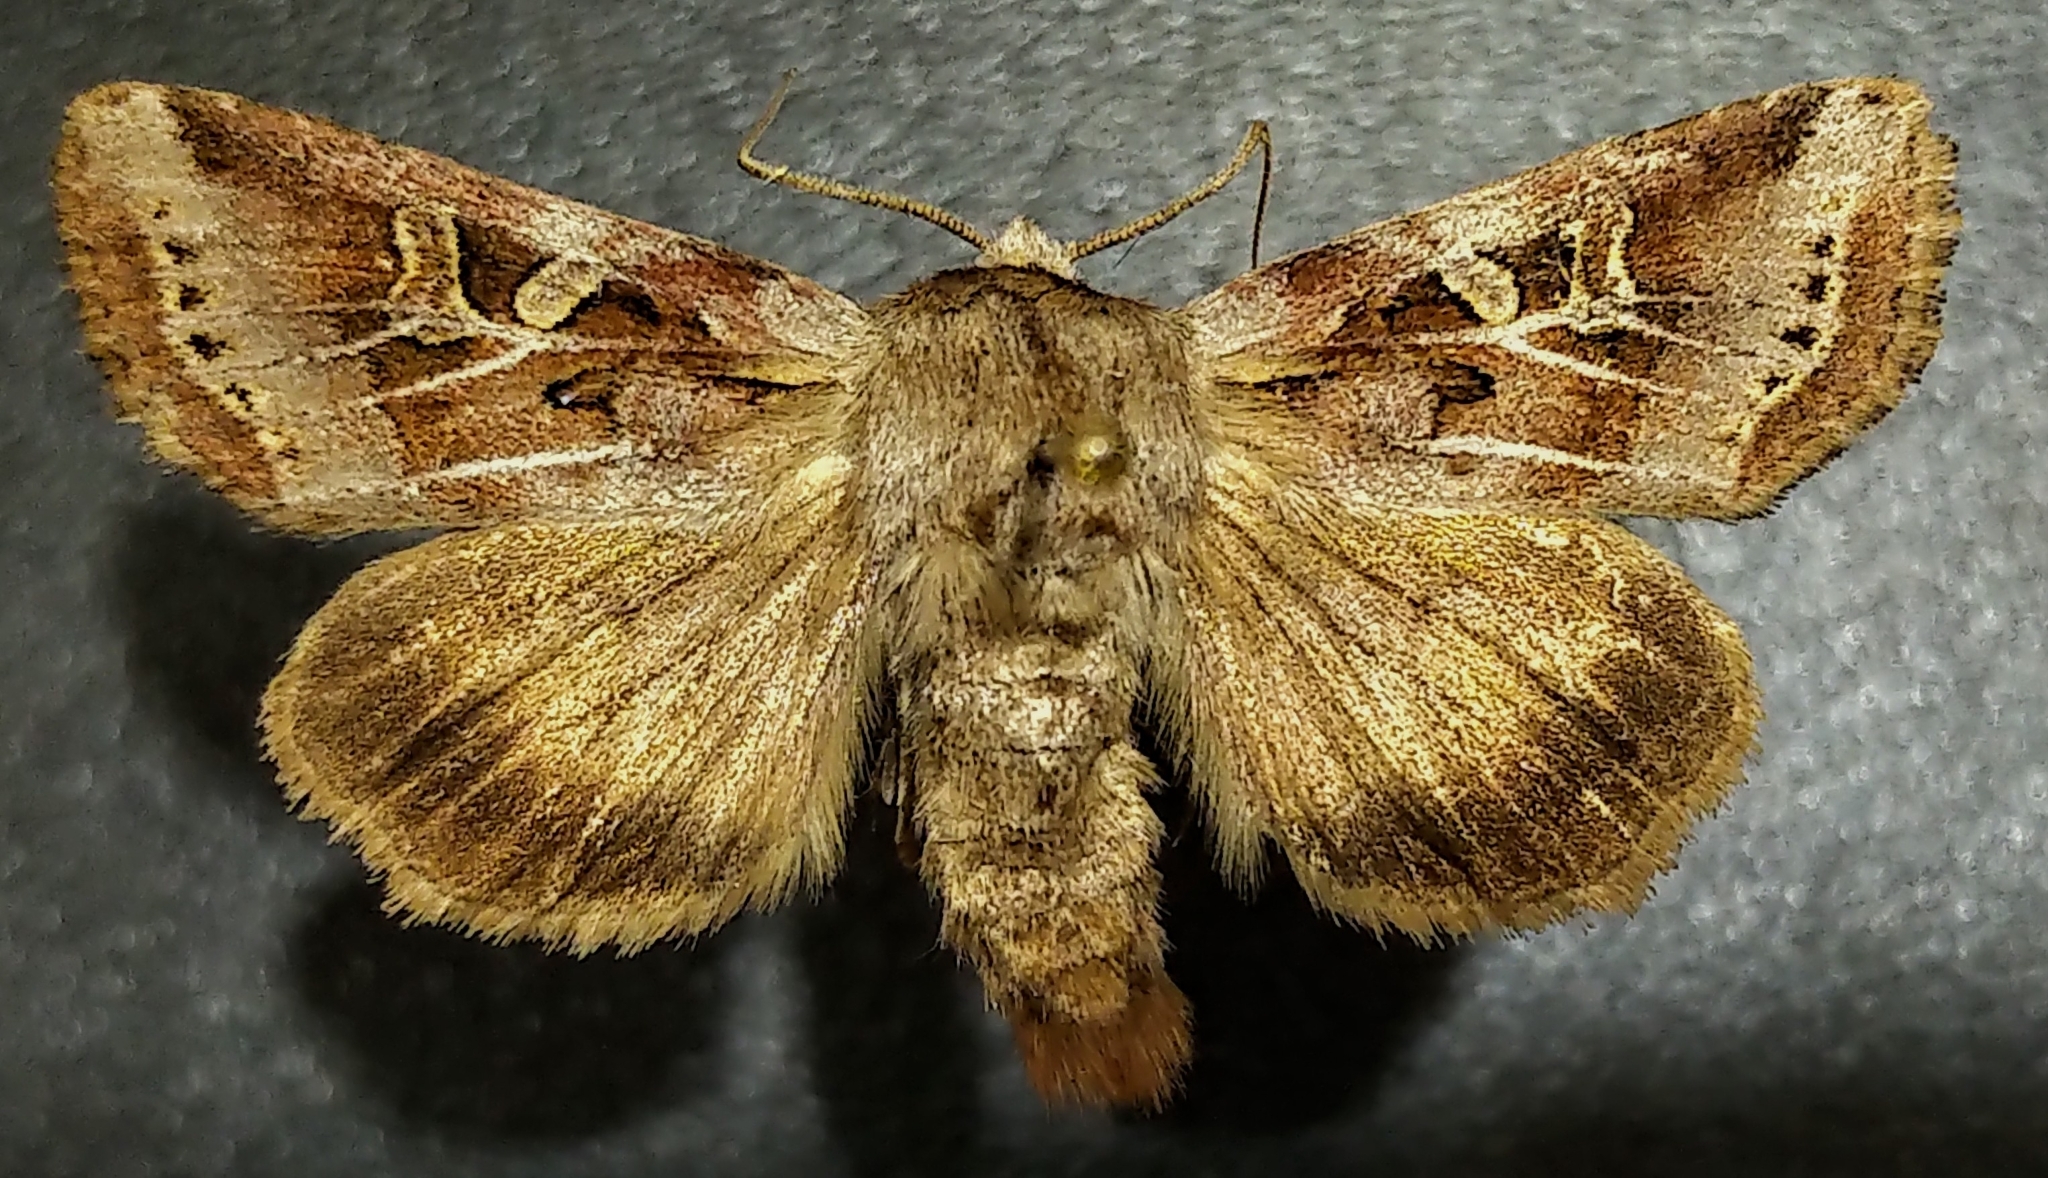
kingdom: Animalia
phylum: Arthropoda
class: Insecta
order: Lepidoptera
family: Noctuidae
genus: Trichordestra
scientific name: Trichordestra rugosa
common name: Wrinkled trichordestra
